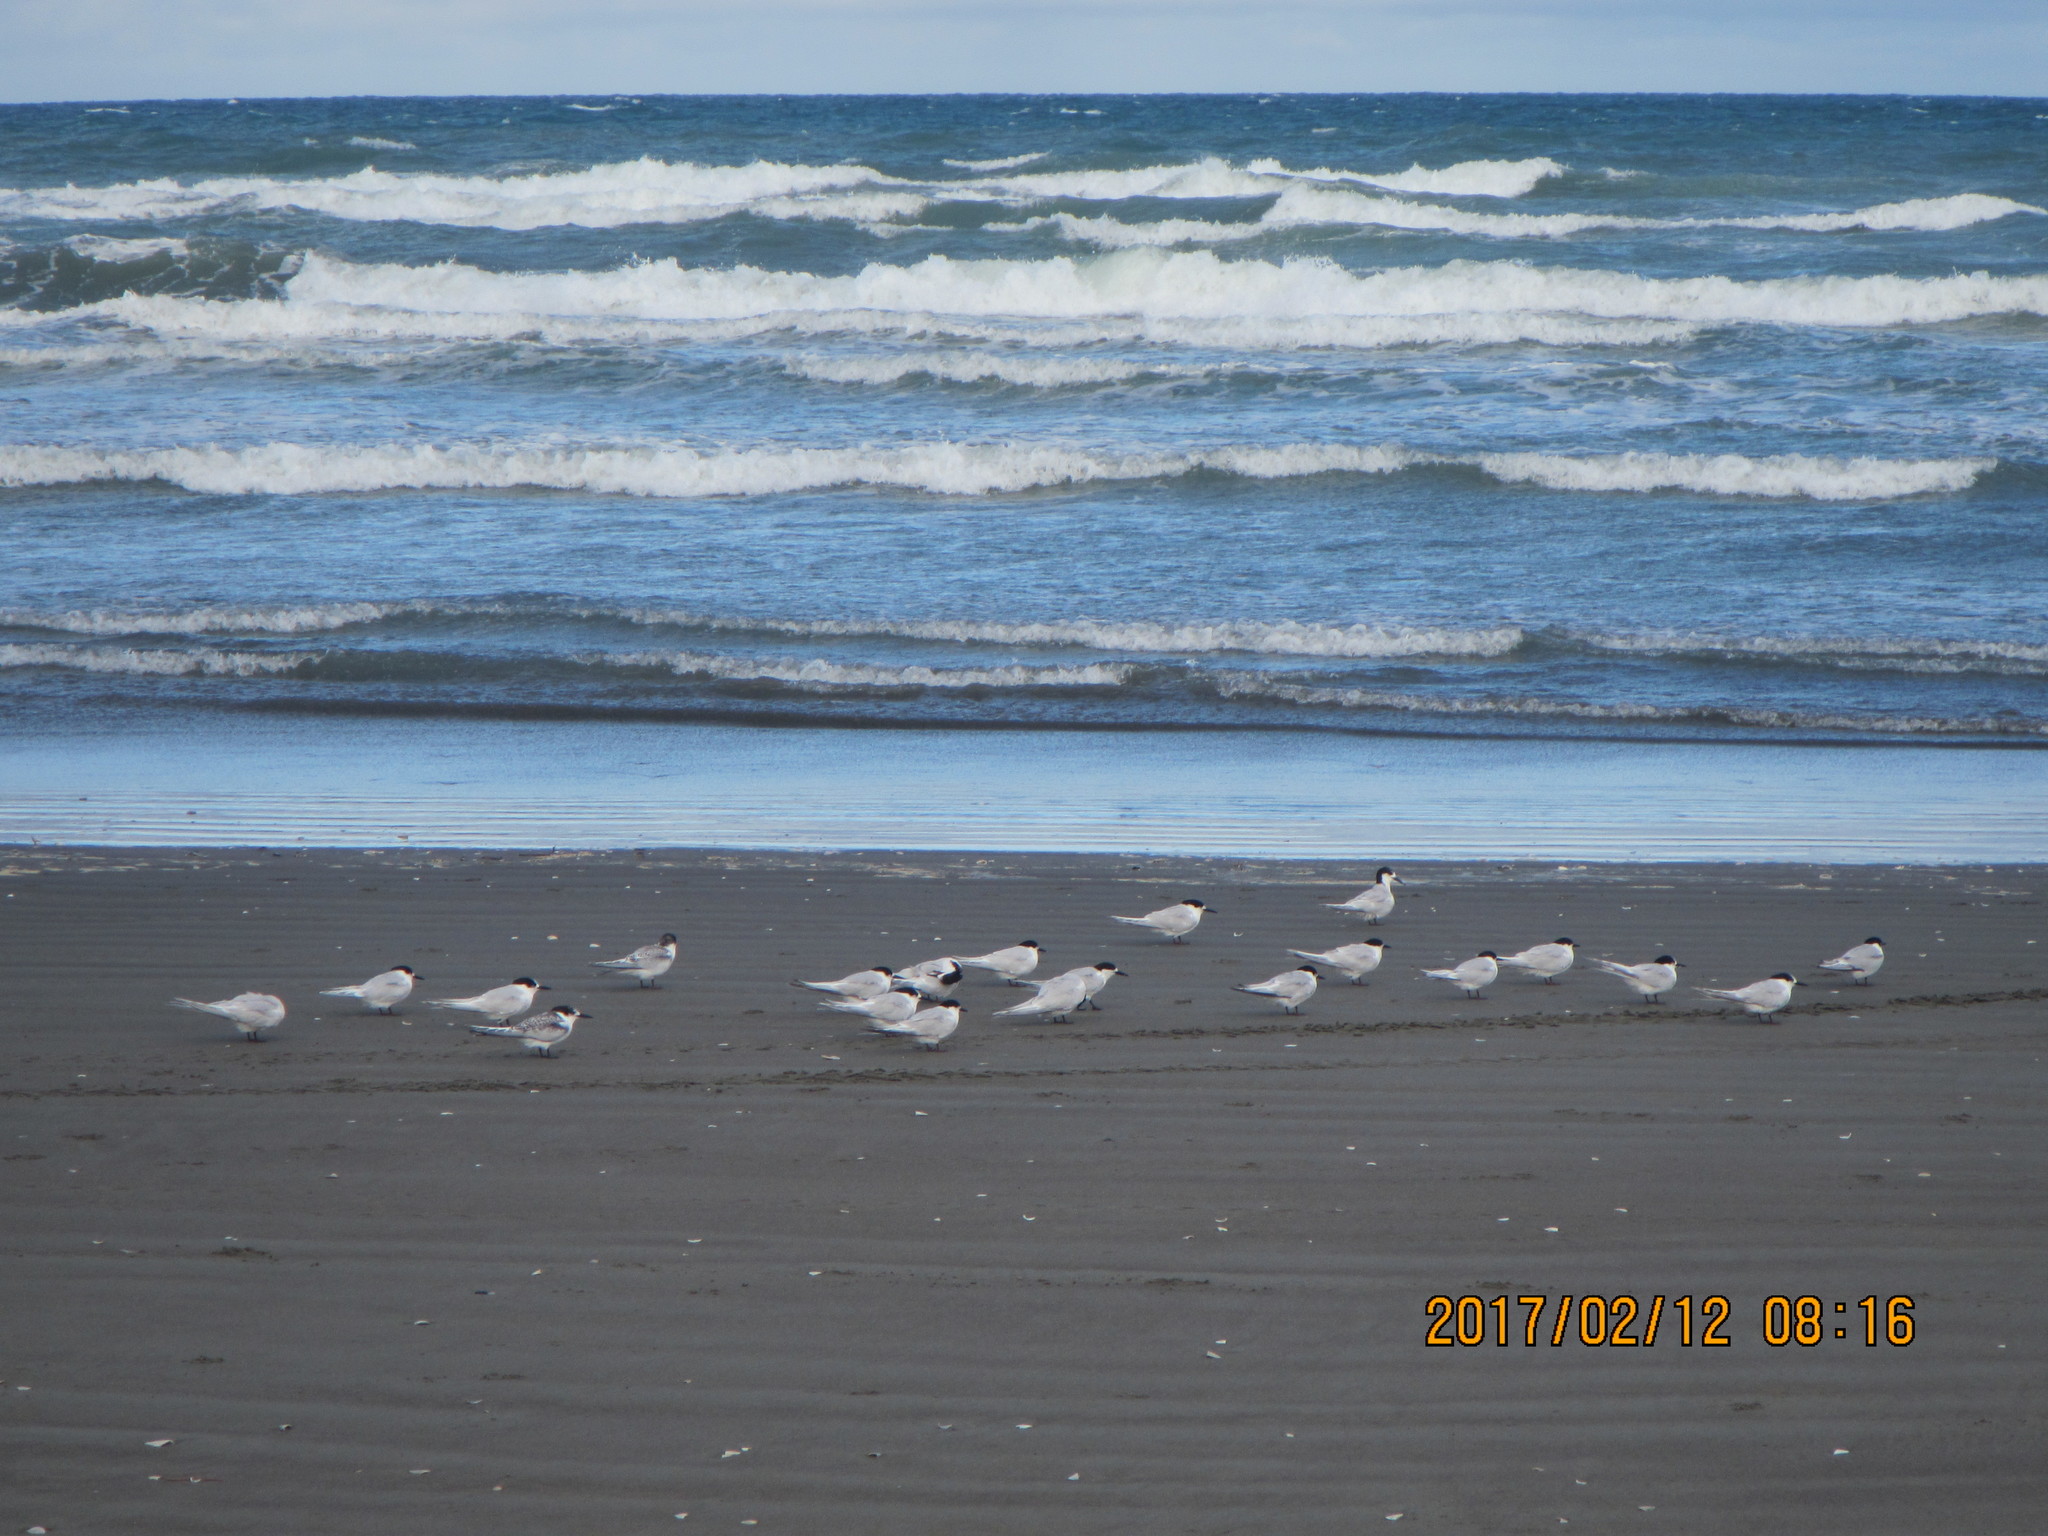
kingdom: Animalia
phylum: Chordata
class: Aves
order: Charadriiformes
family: Laridae
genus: Sterna
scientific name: Sterna striata
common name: White-fronted tern
